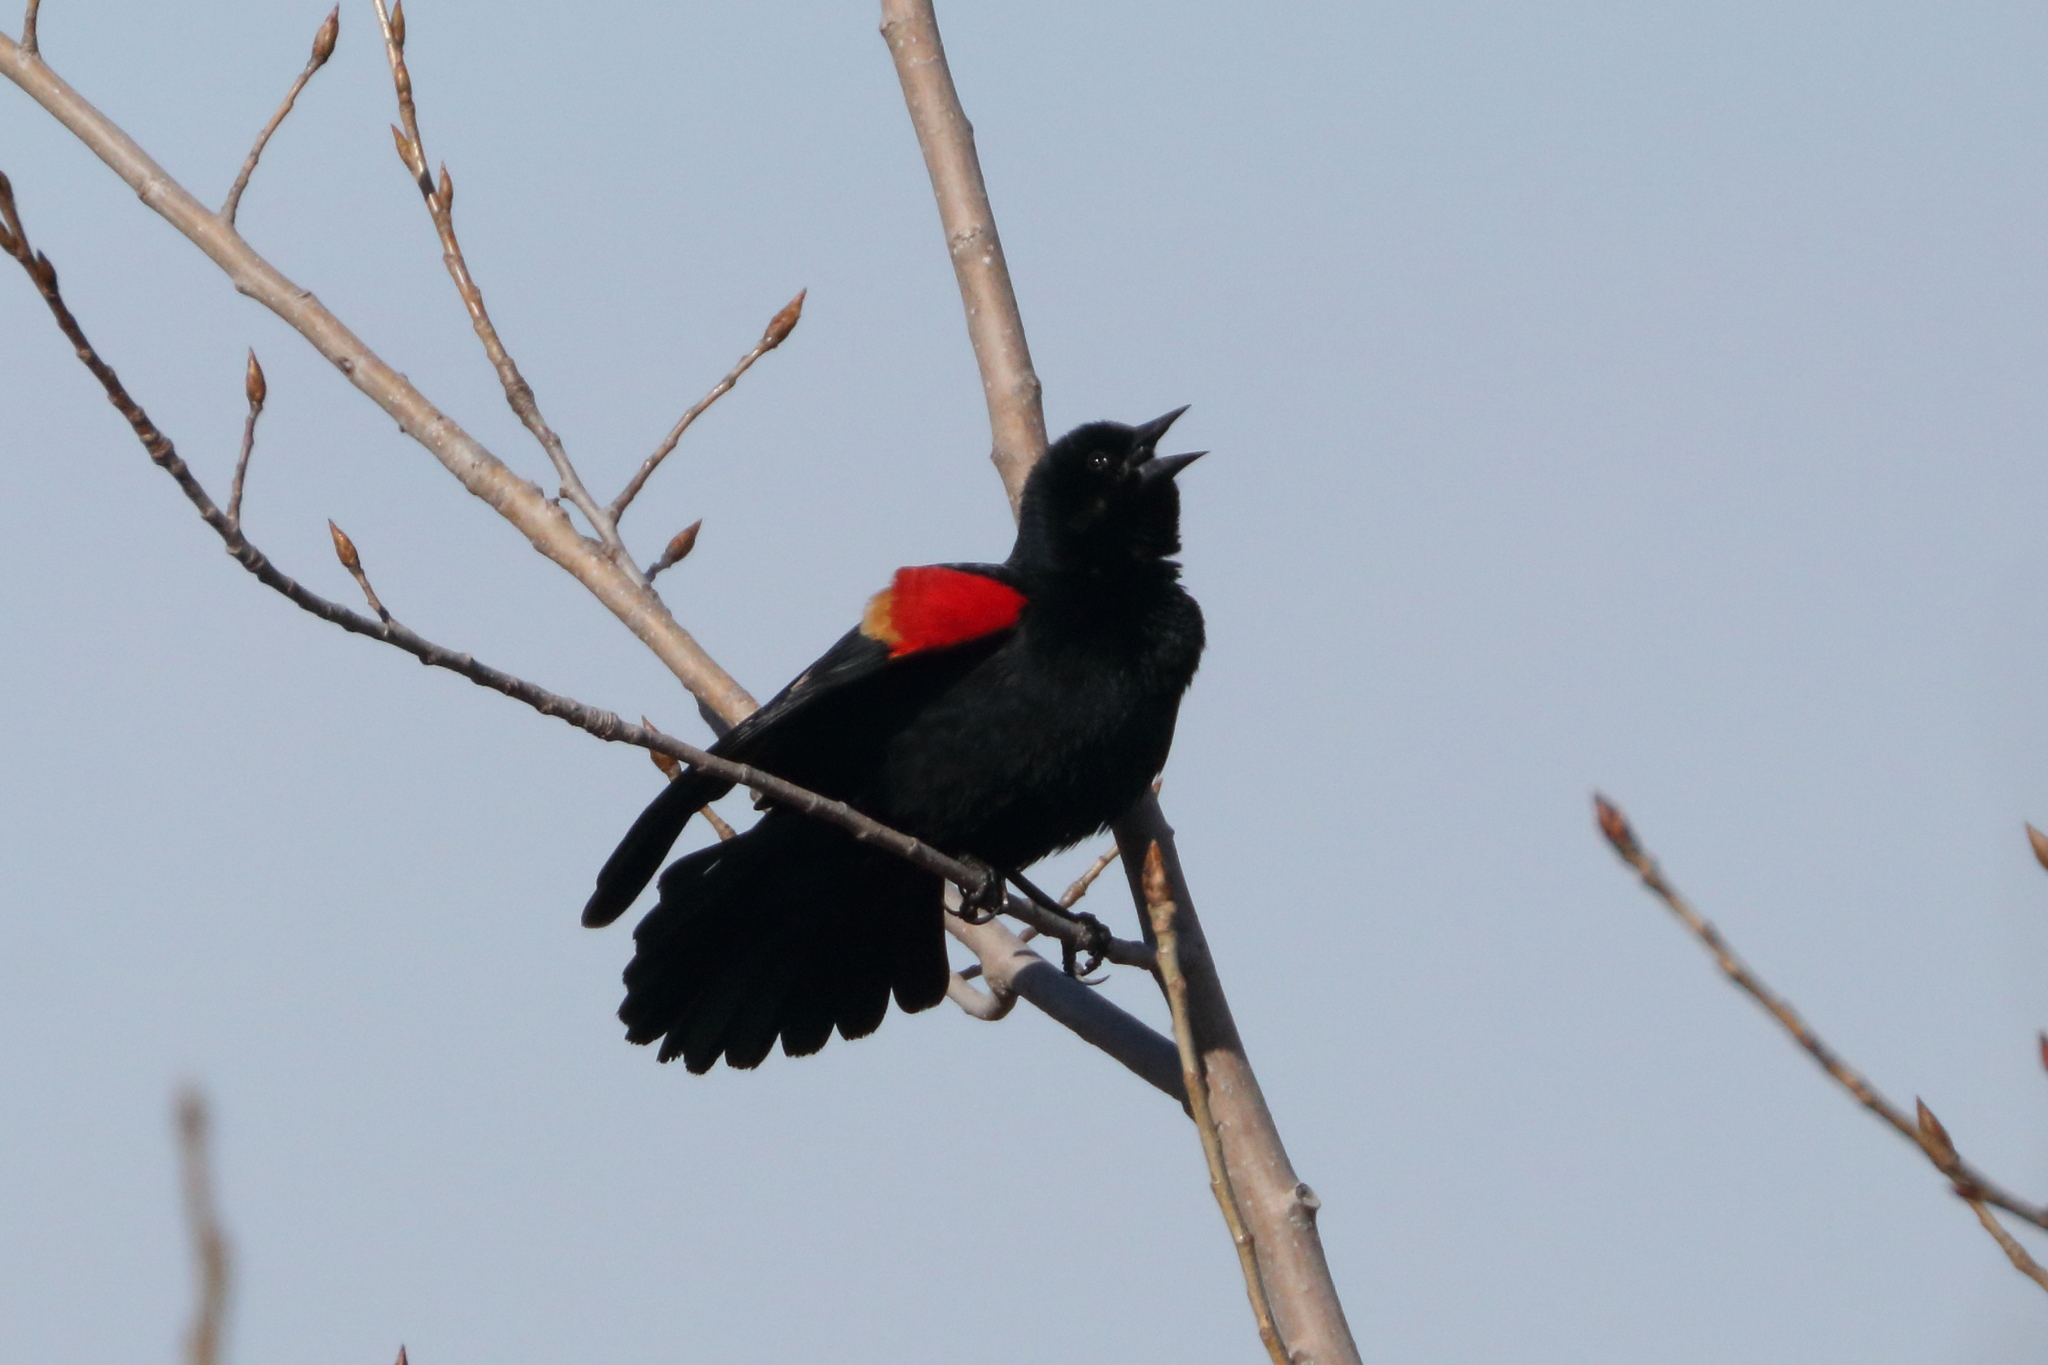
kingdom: Animalia
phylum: Chordata
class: Aves
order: Passeriformes
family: Icteridae
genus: Agelaius
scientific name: Agelaius phoeniceus
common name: Red-winged blackbird
